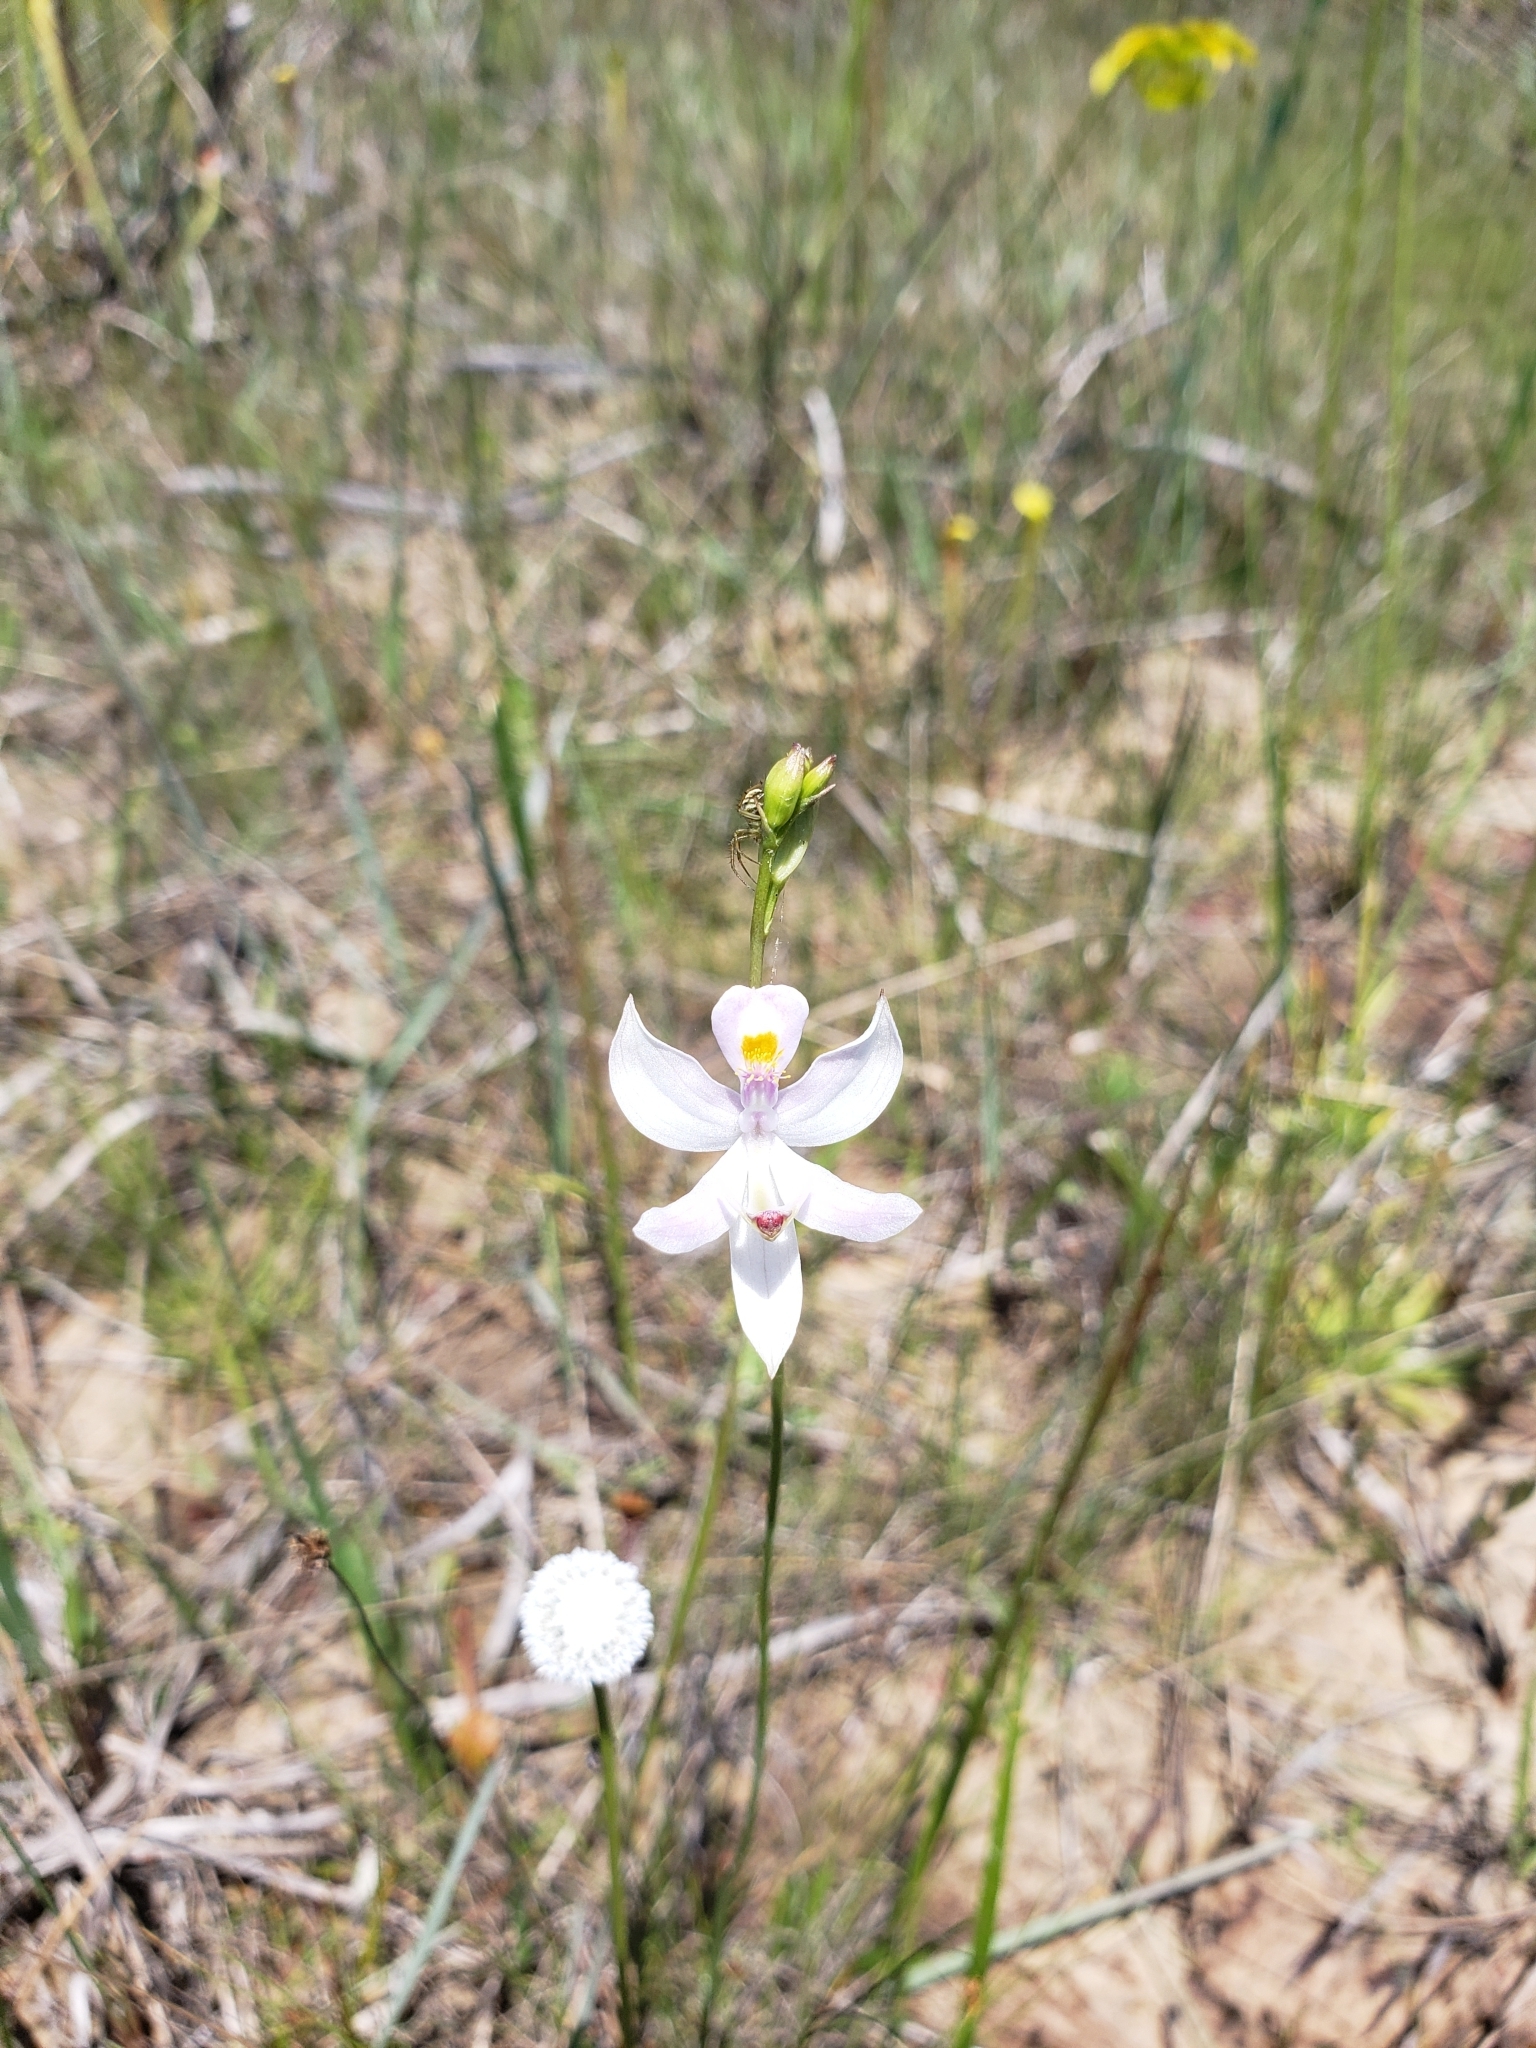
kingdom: Plantae
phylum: Tracheophyta
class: Liliopsida
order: Asparagales
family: Orchidaceae
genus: Calopogon
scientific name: Calopogon pallidus
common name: Pale grasspink
